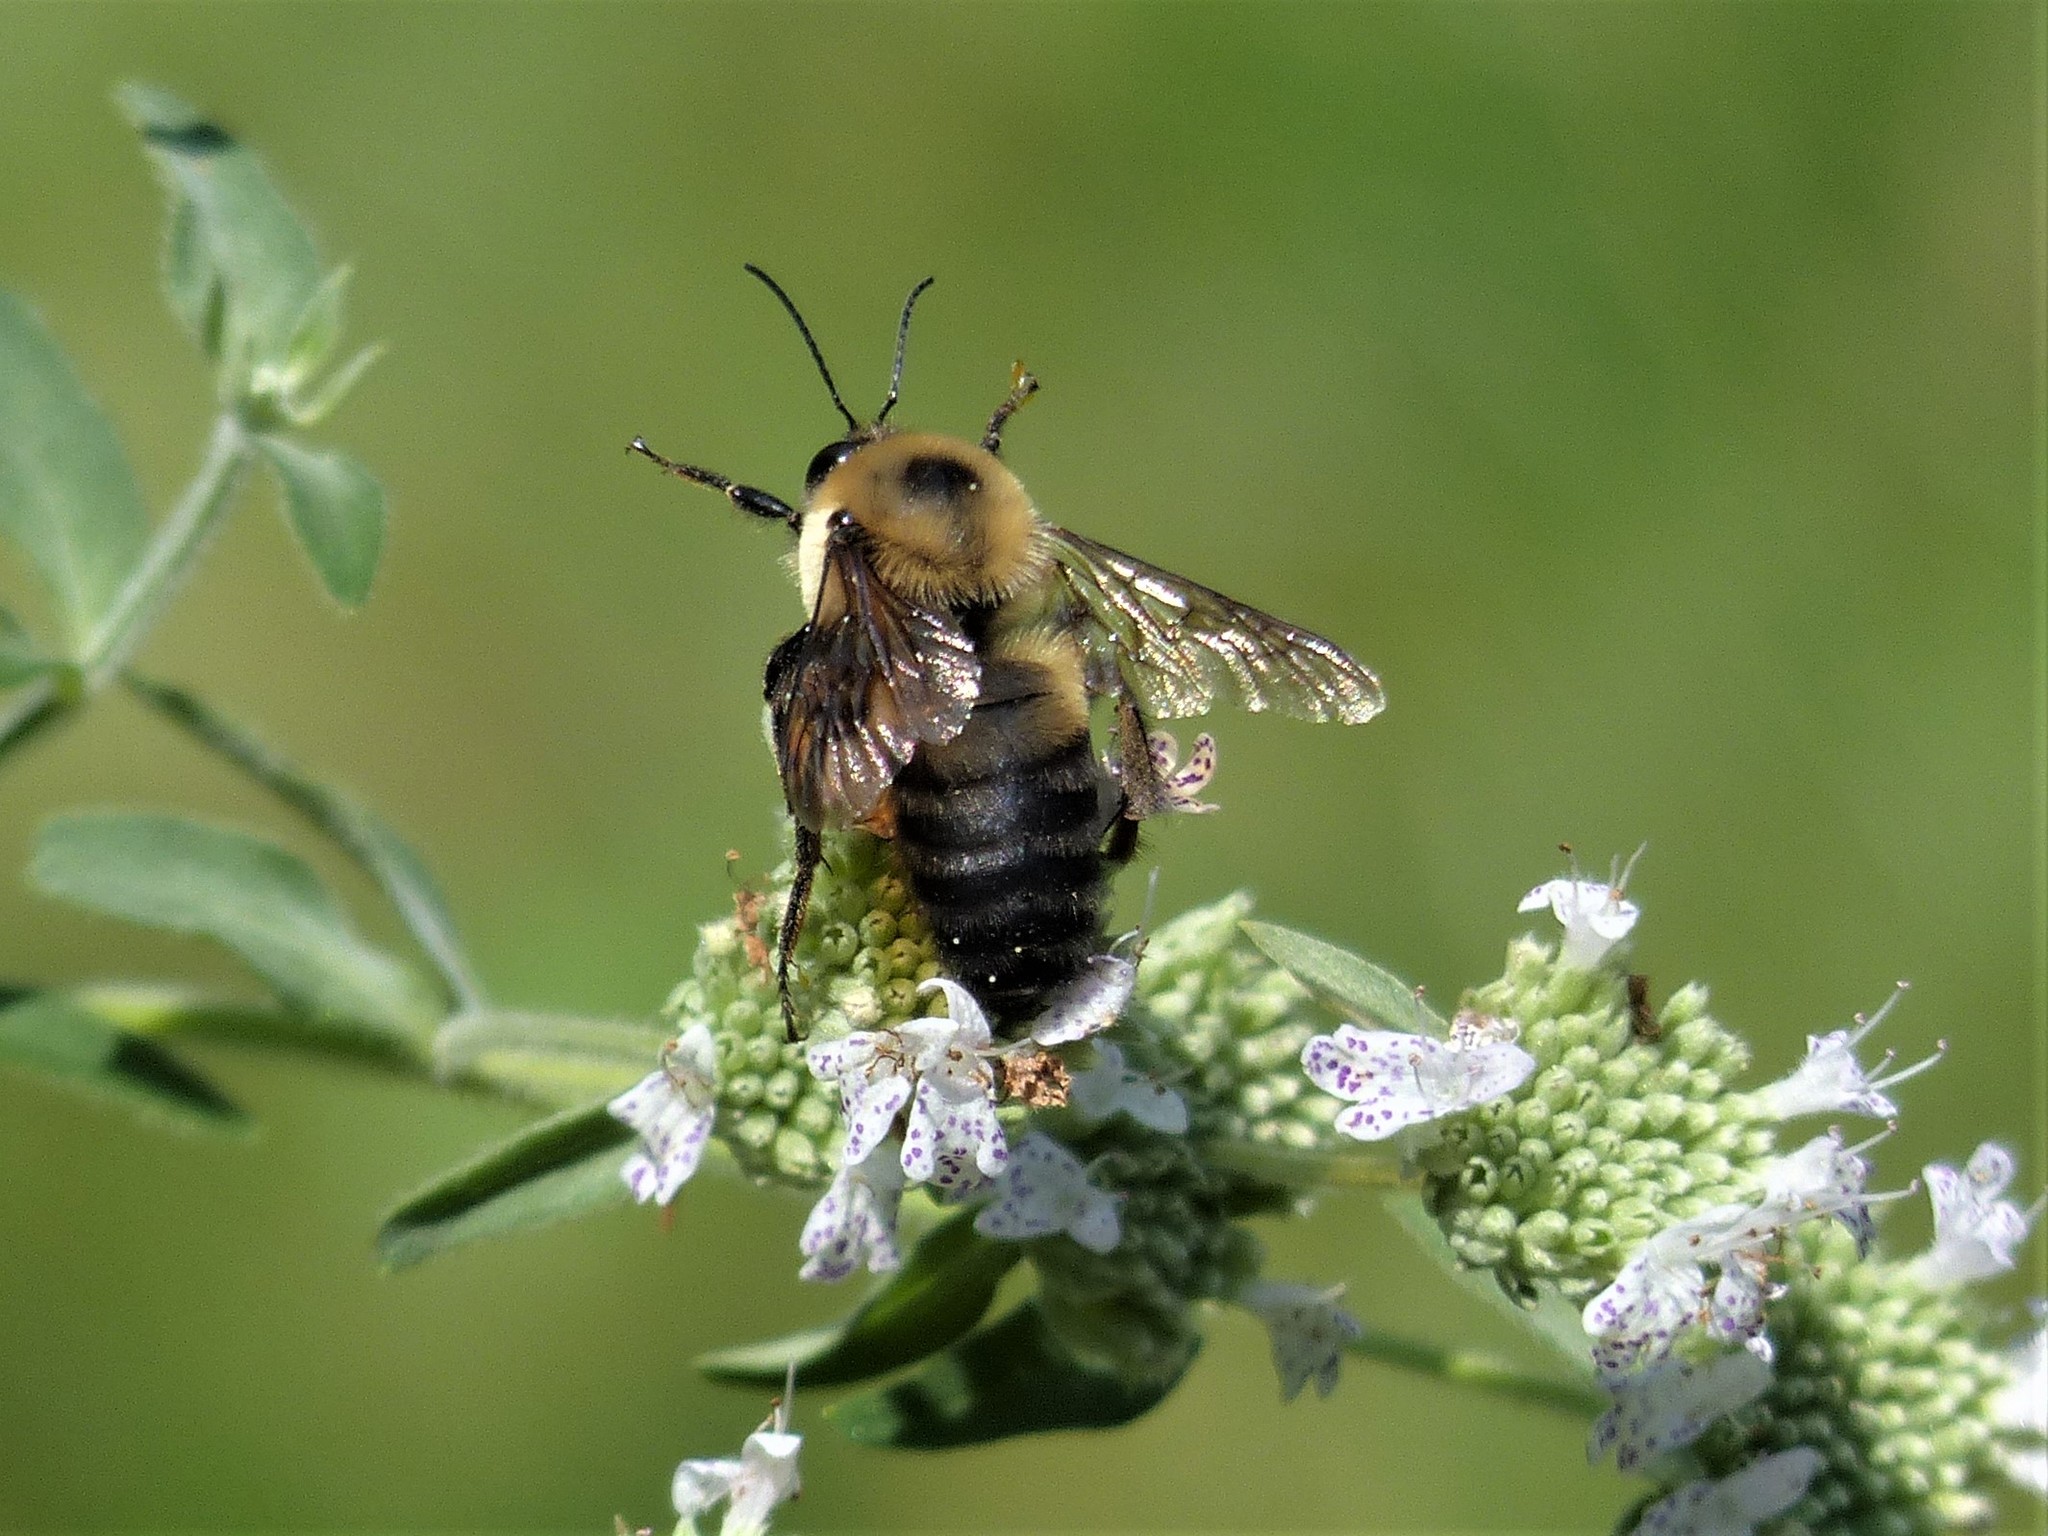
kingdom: Animalia
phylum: Arthropoda
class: Insecta
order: Hymenoptera
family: Apidae
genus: Bombus
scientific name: Bombus griseocollis
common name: Brown-belted bumble bee
